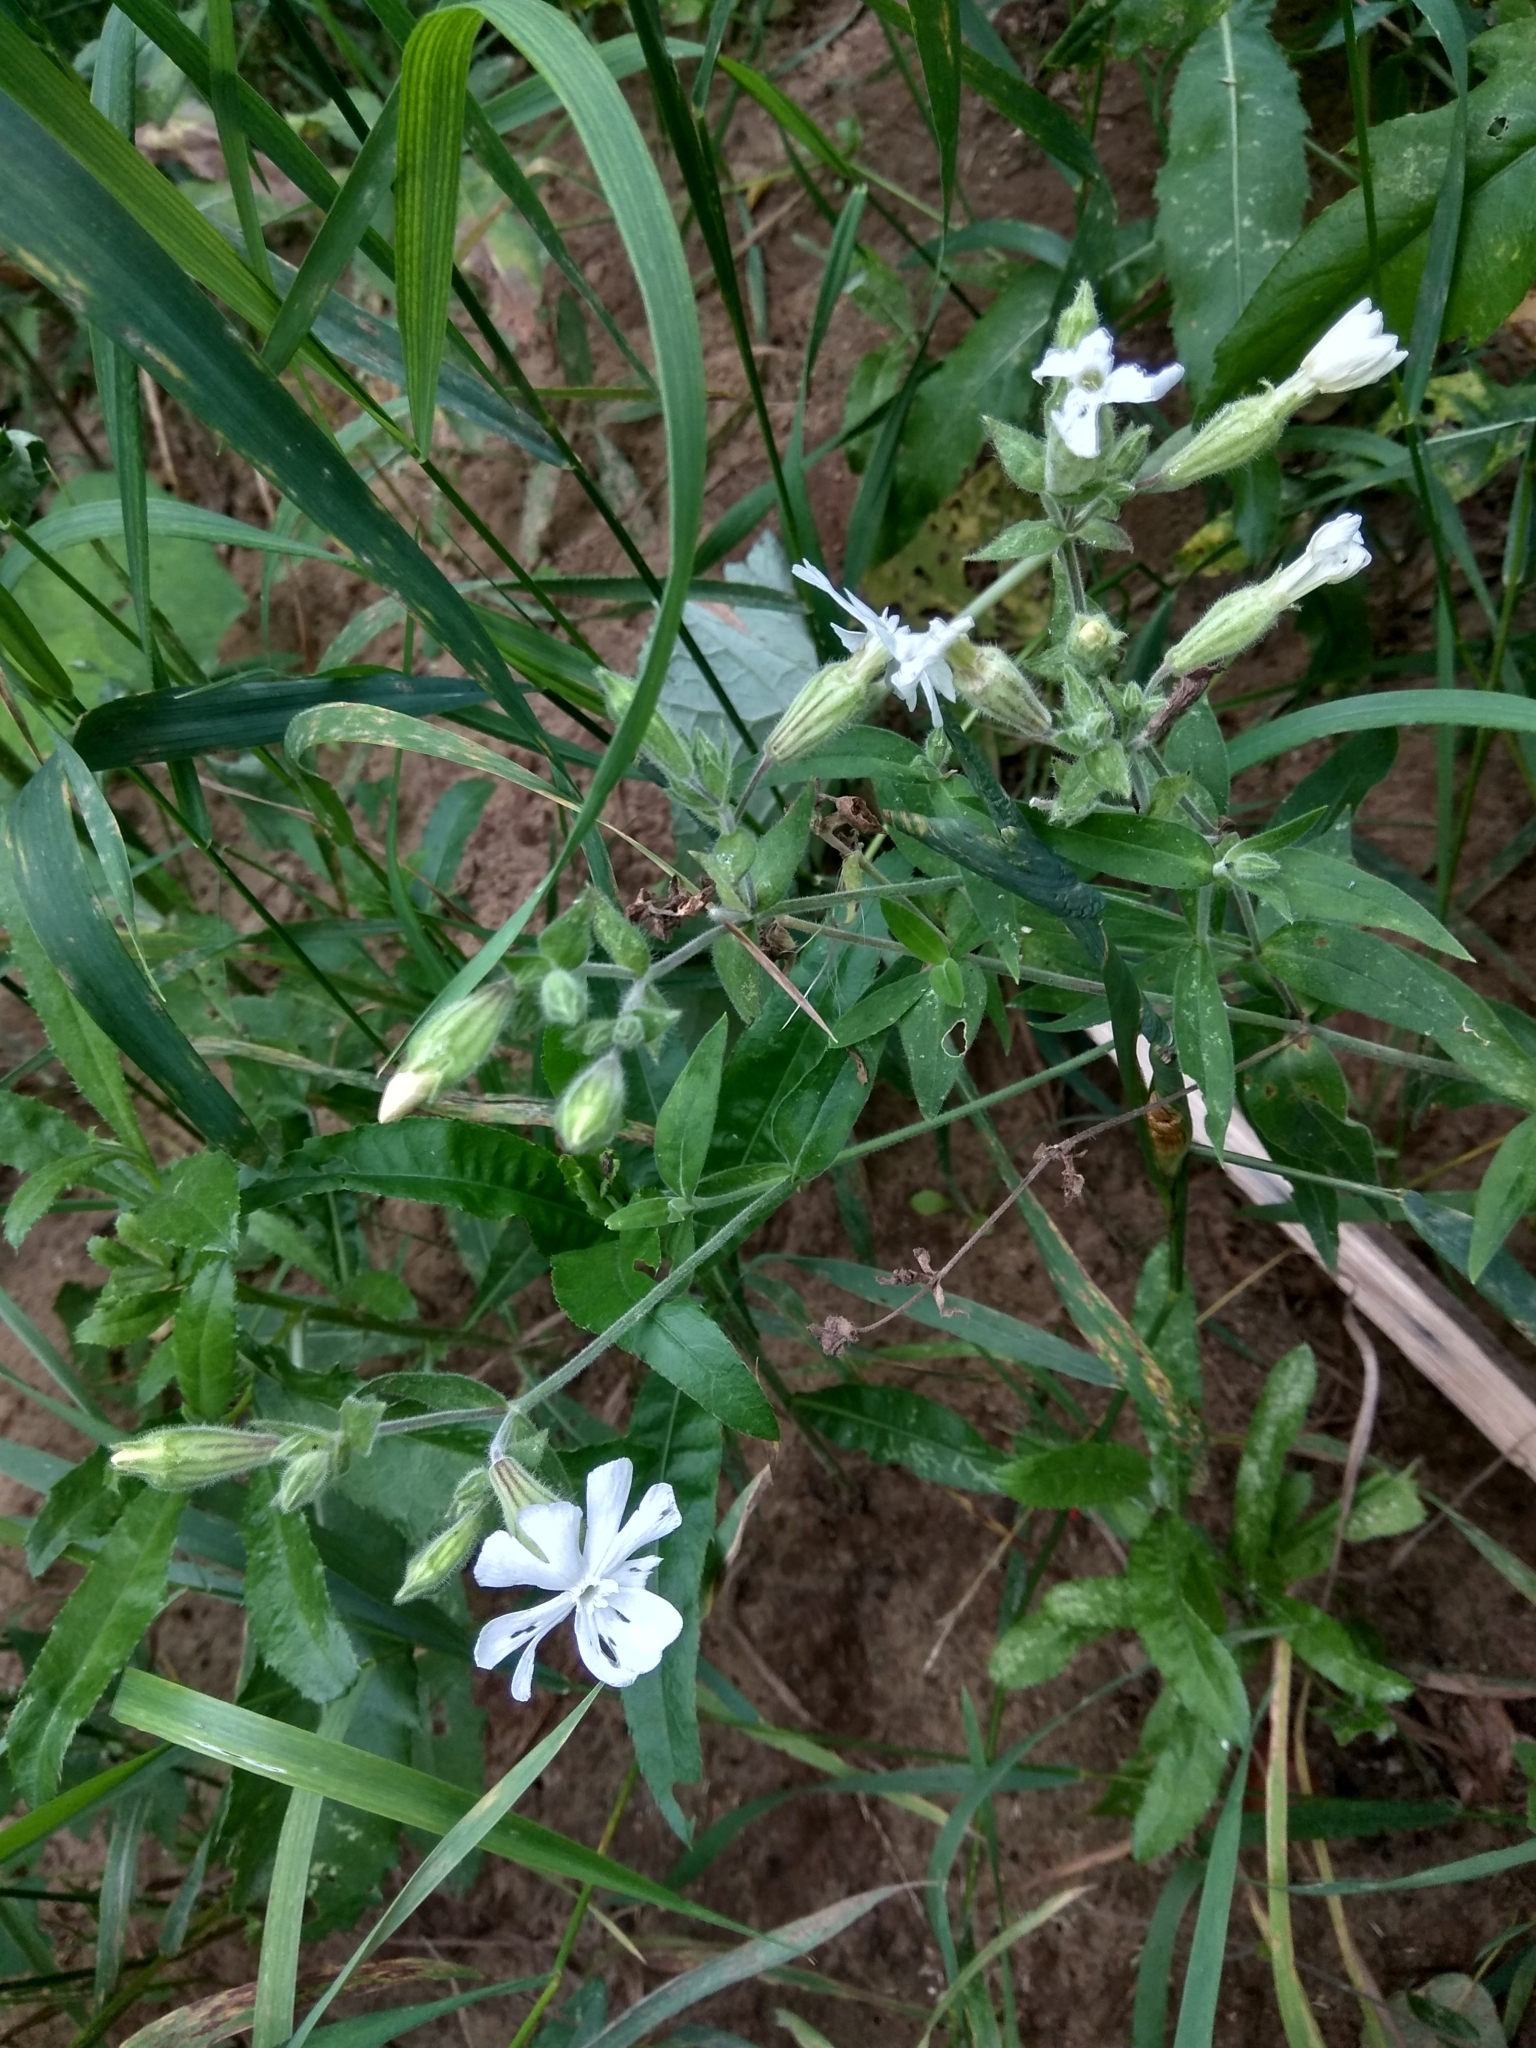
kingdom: Plantae
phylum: Tracheophyta
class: Magnoliopsida
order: Caryophyllales
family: Caryophyllaceae
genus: Silene
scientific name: Silene latifolia
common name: White campion
